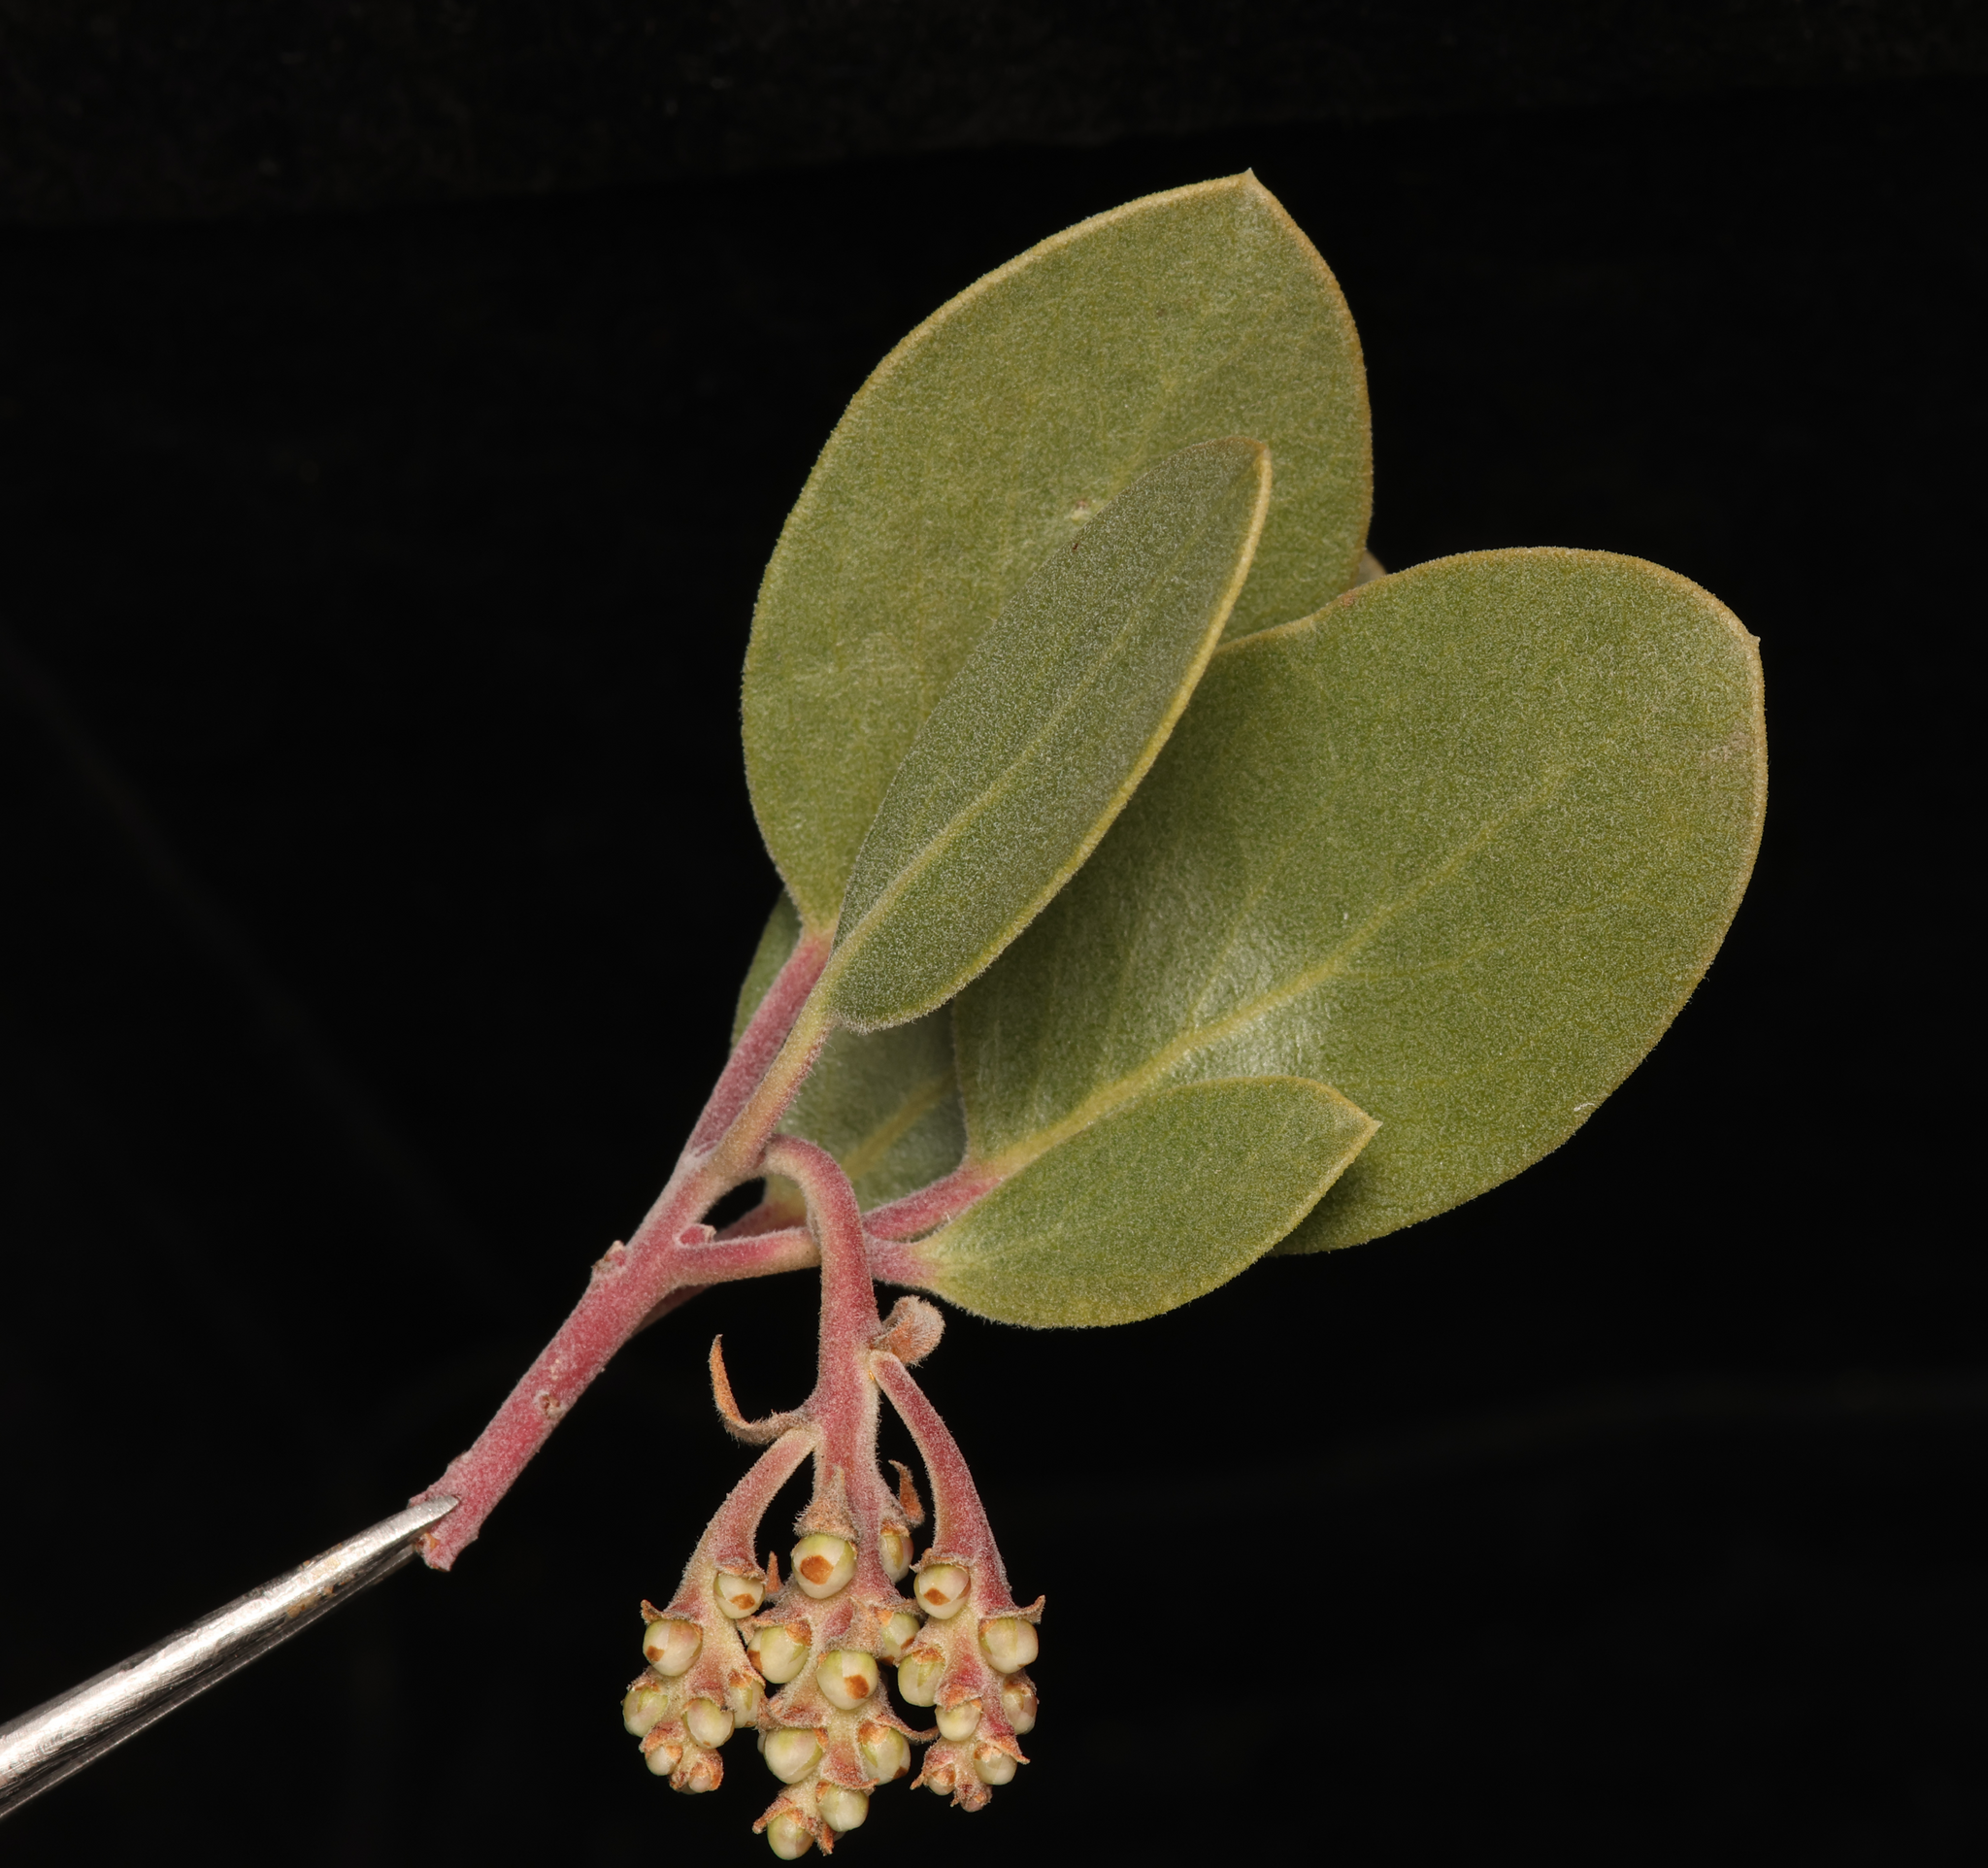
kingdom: Plantae
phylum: Tracheophyta
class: Magnoliopsida
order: Ericales
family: Ericaceae
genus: Arctostaphylos
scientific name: Arctostaphylos parryana
